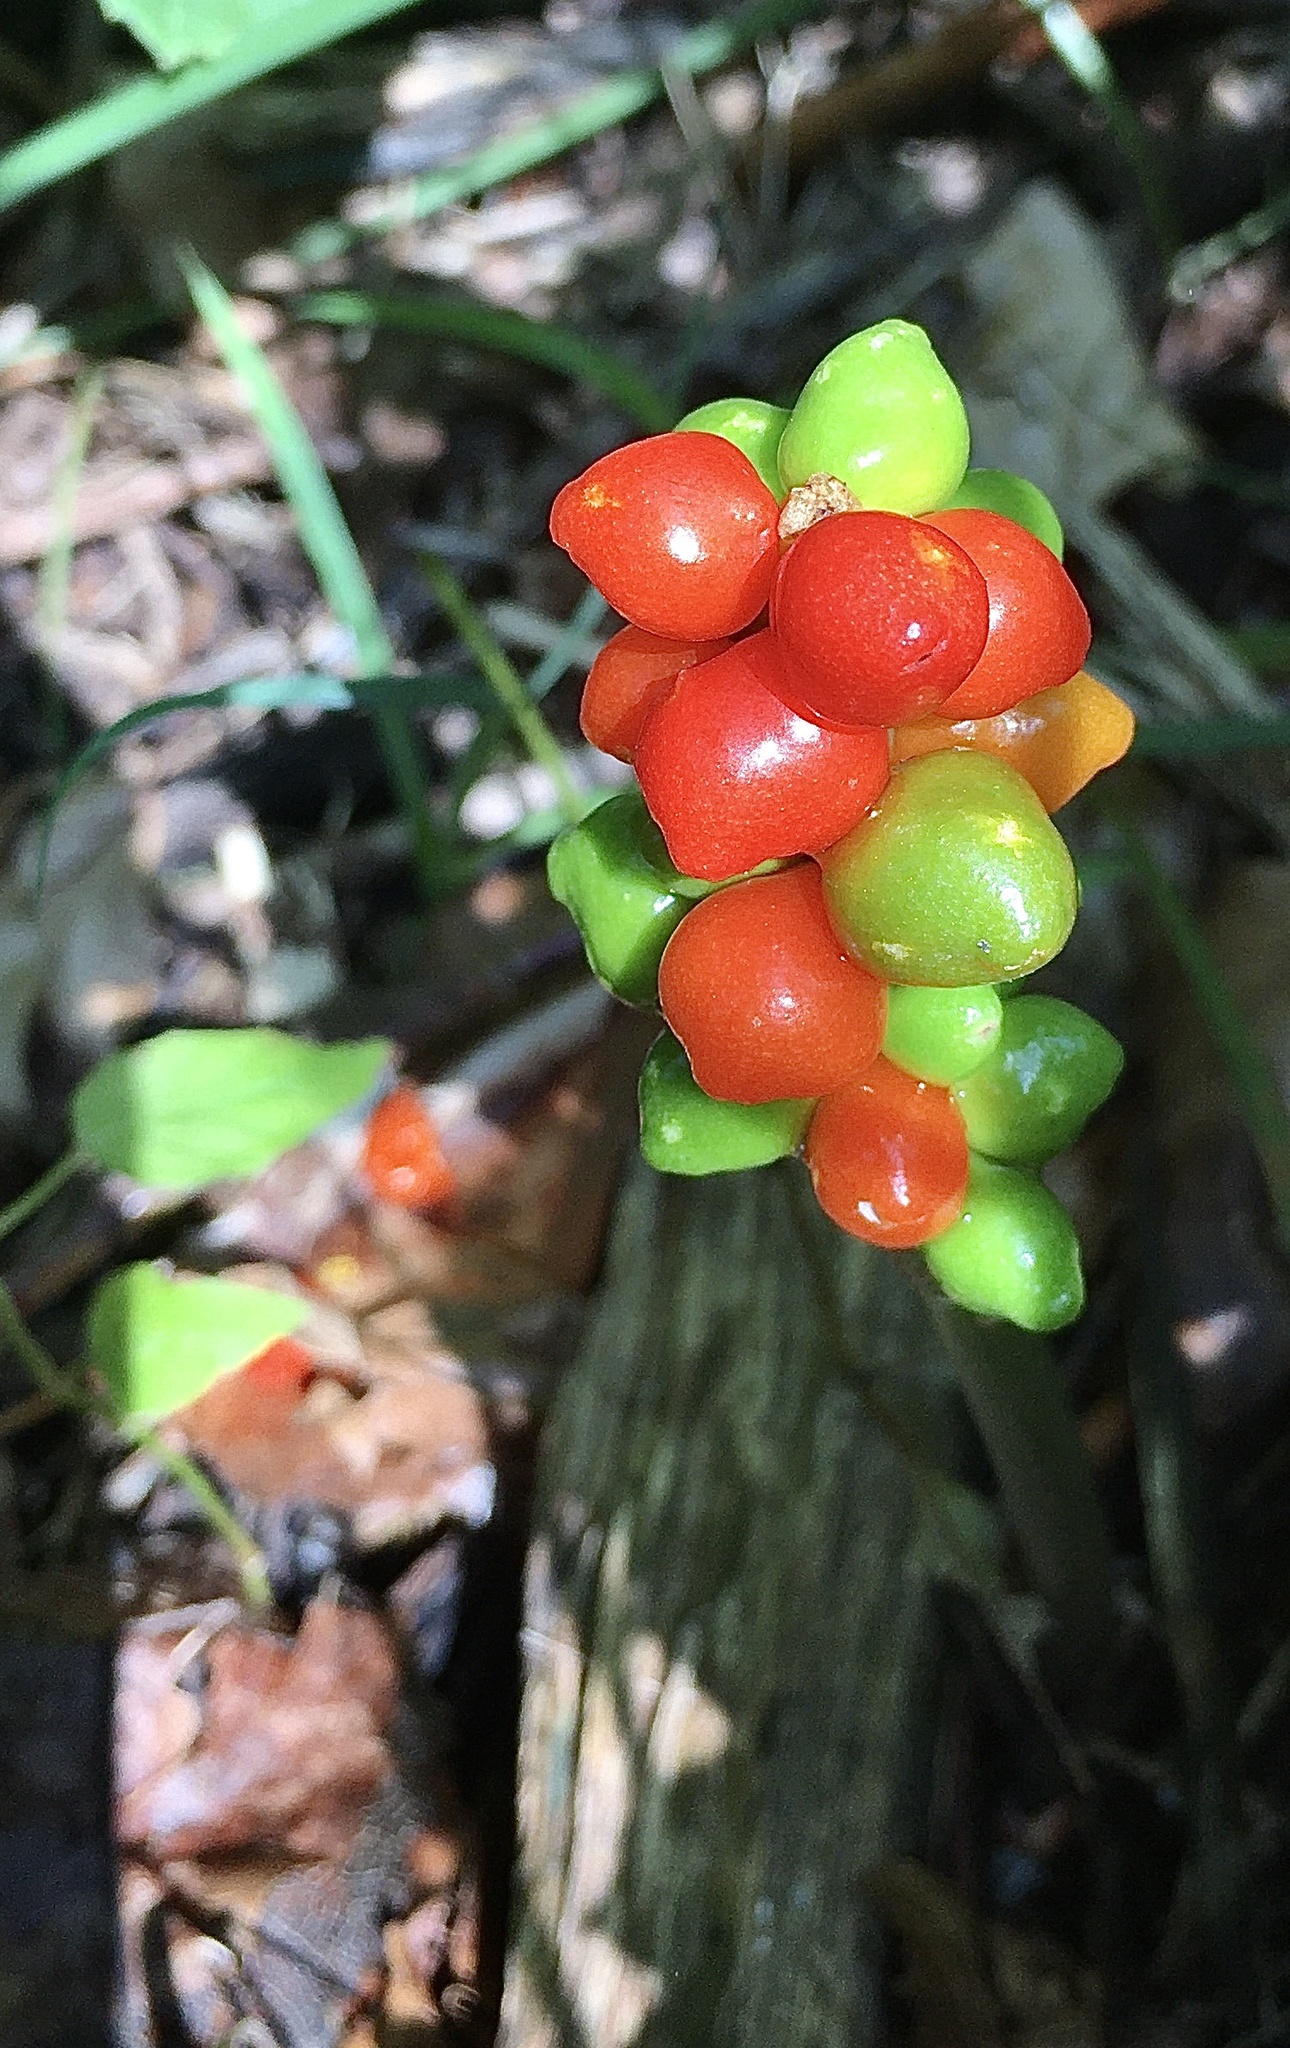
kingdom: Plantae
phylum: Tracheophyta
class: Liliopsida
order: Alismatales
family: Araceae
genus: Arum
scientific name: Arum maculatum
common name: Lords-and-ladies
